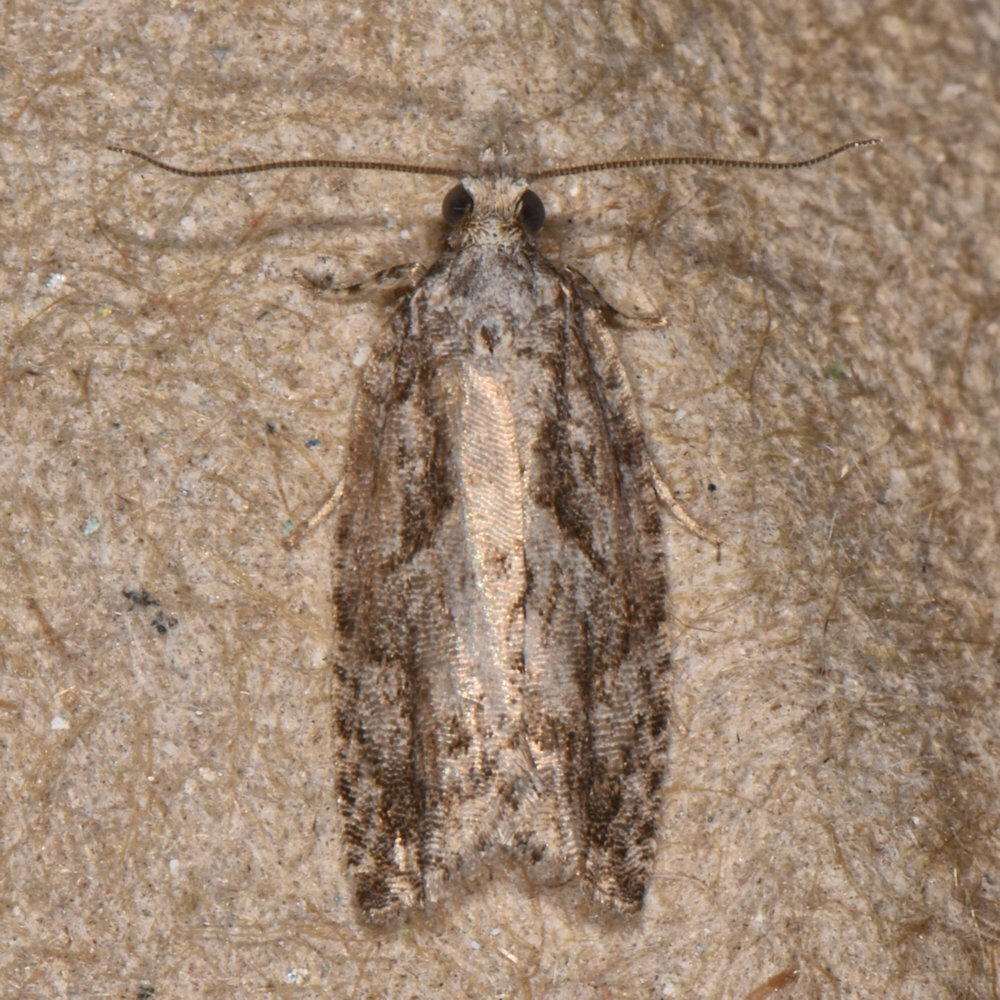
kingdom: Animalia
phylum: Arthropoda
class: Insecta
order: Lepidoptera
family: Tortricidae
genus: Epinotia
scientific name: Epinotia nonana
